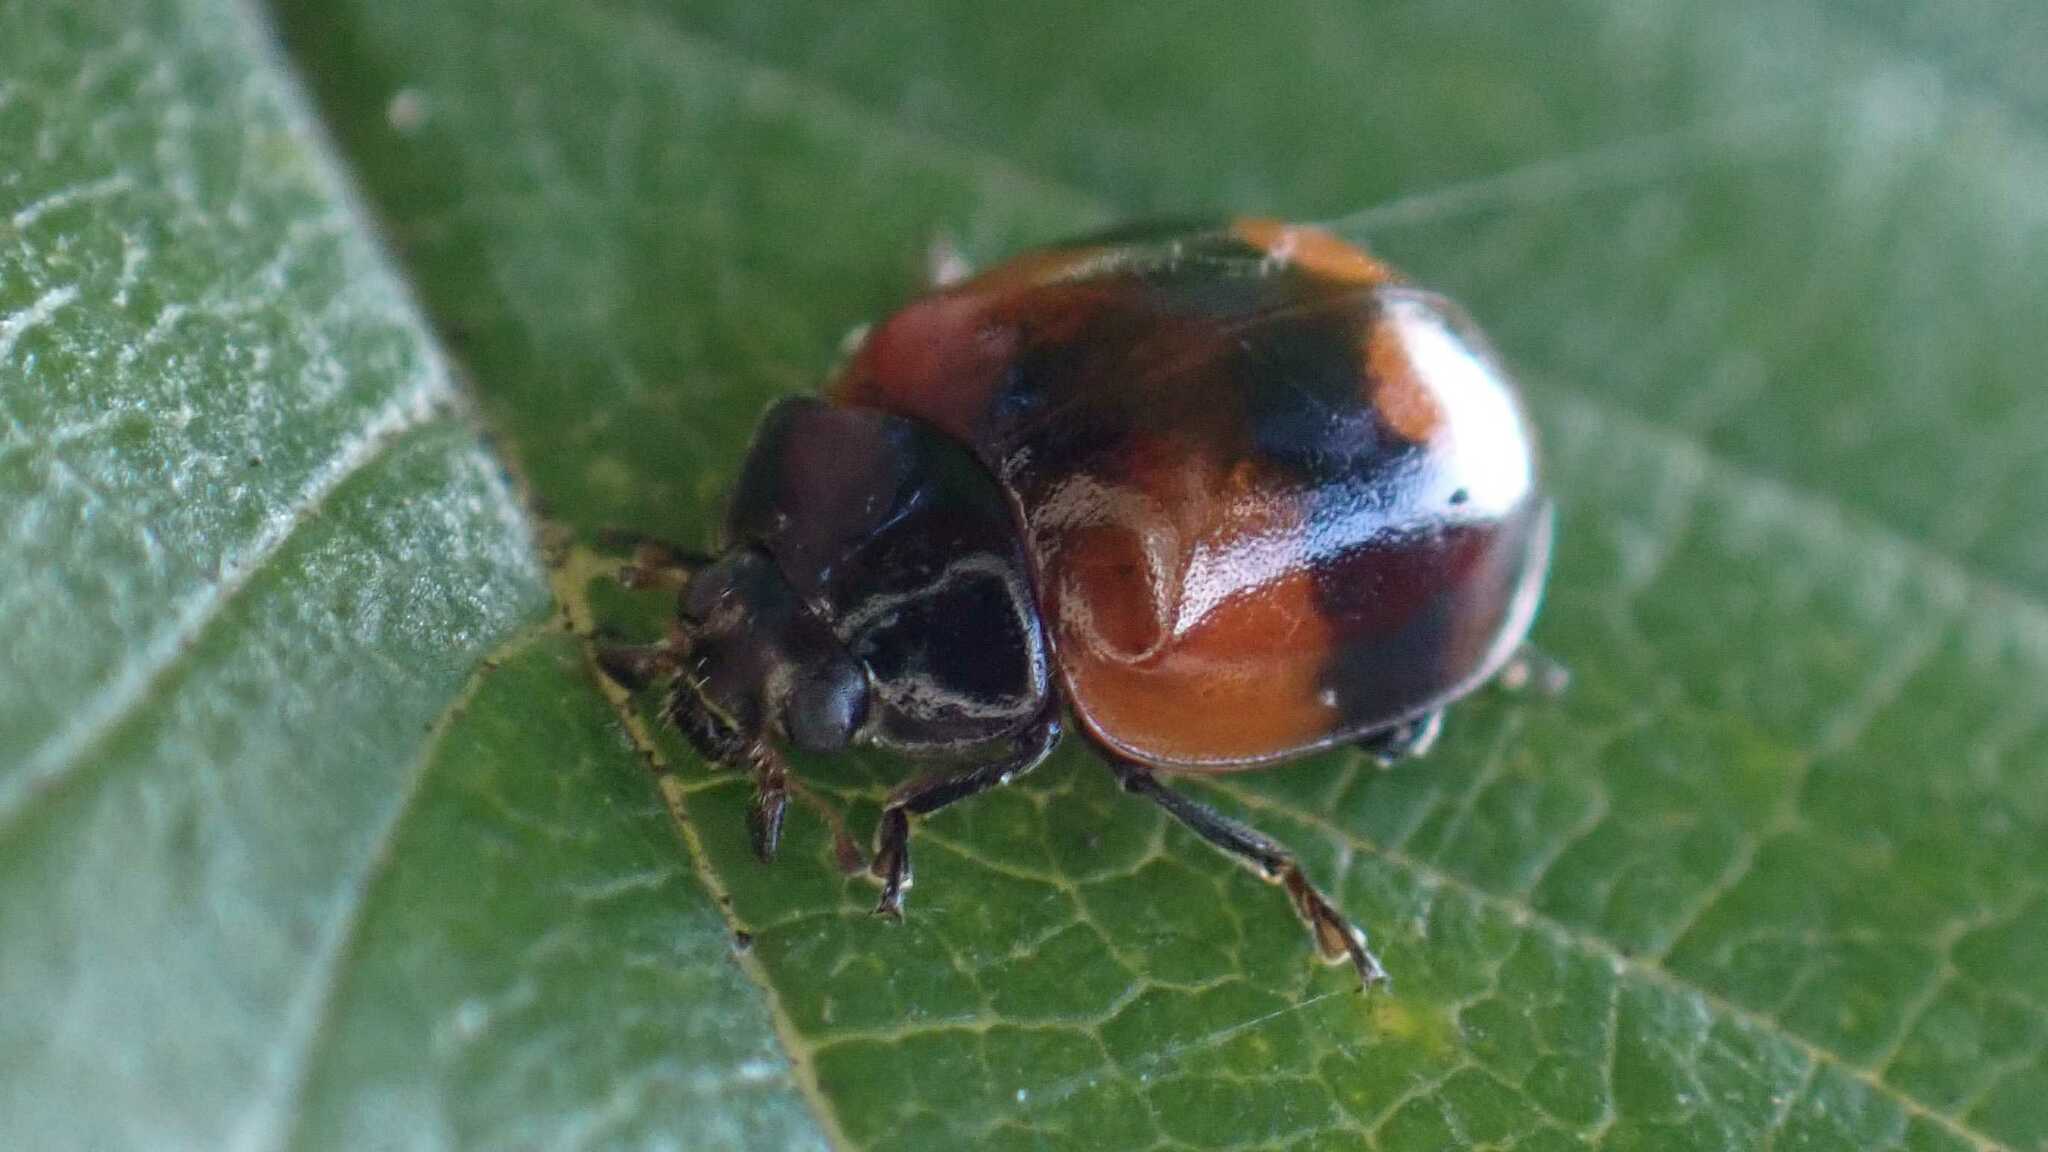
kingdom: Animalia
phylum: Arthropoda
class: Insecta
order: Coleoptera
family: Coccinellidae
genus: Adalia
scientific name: Adalia bipunctata
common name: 2-spot ladybird
